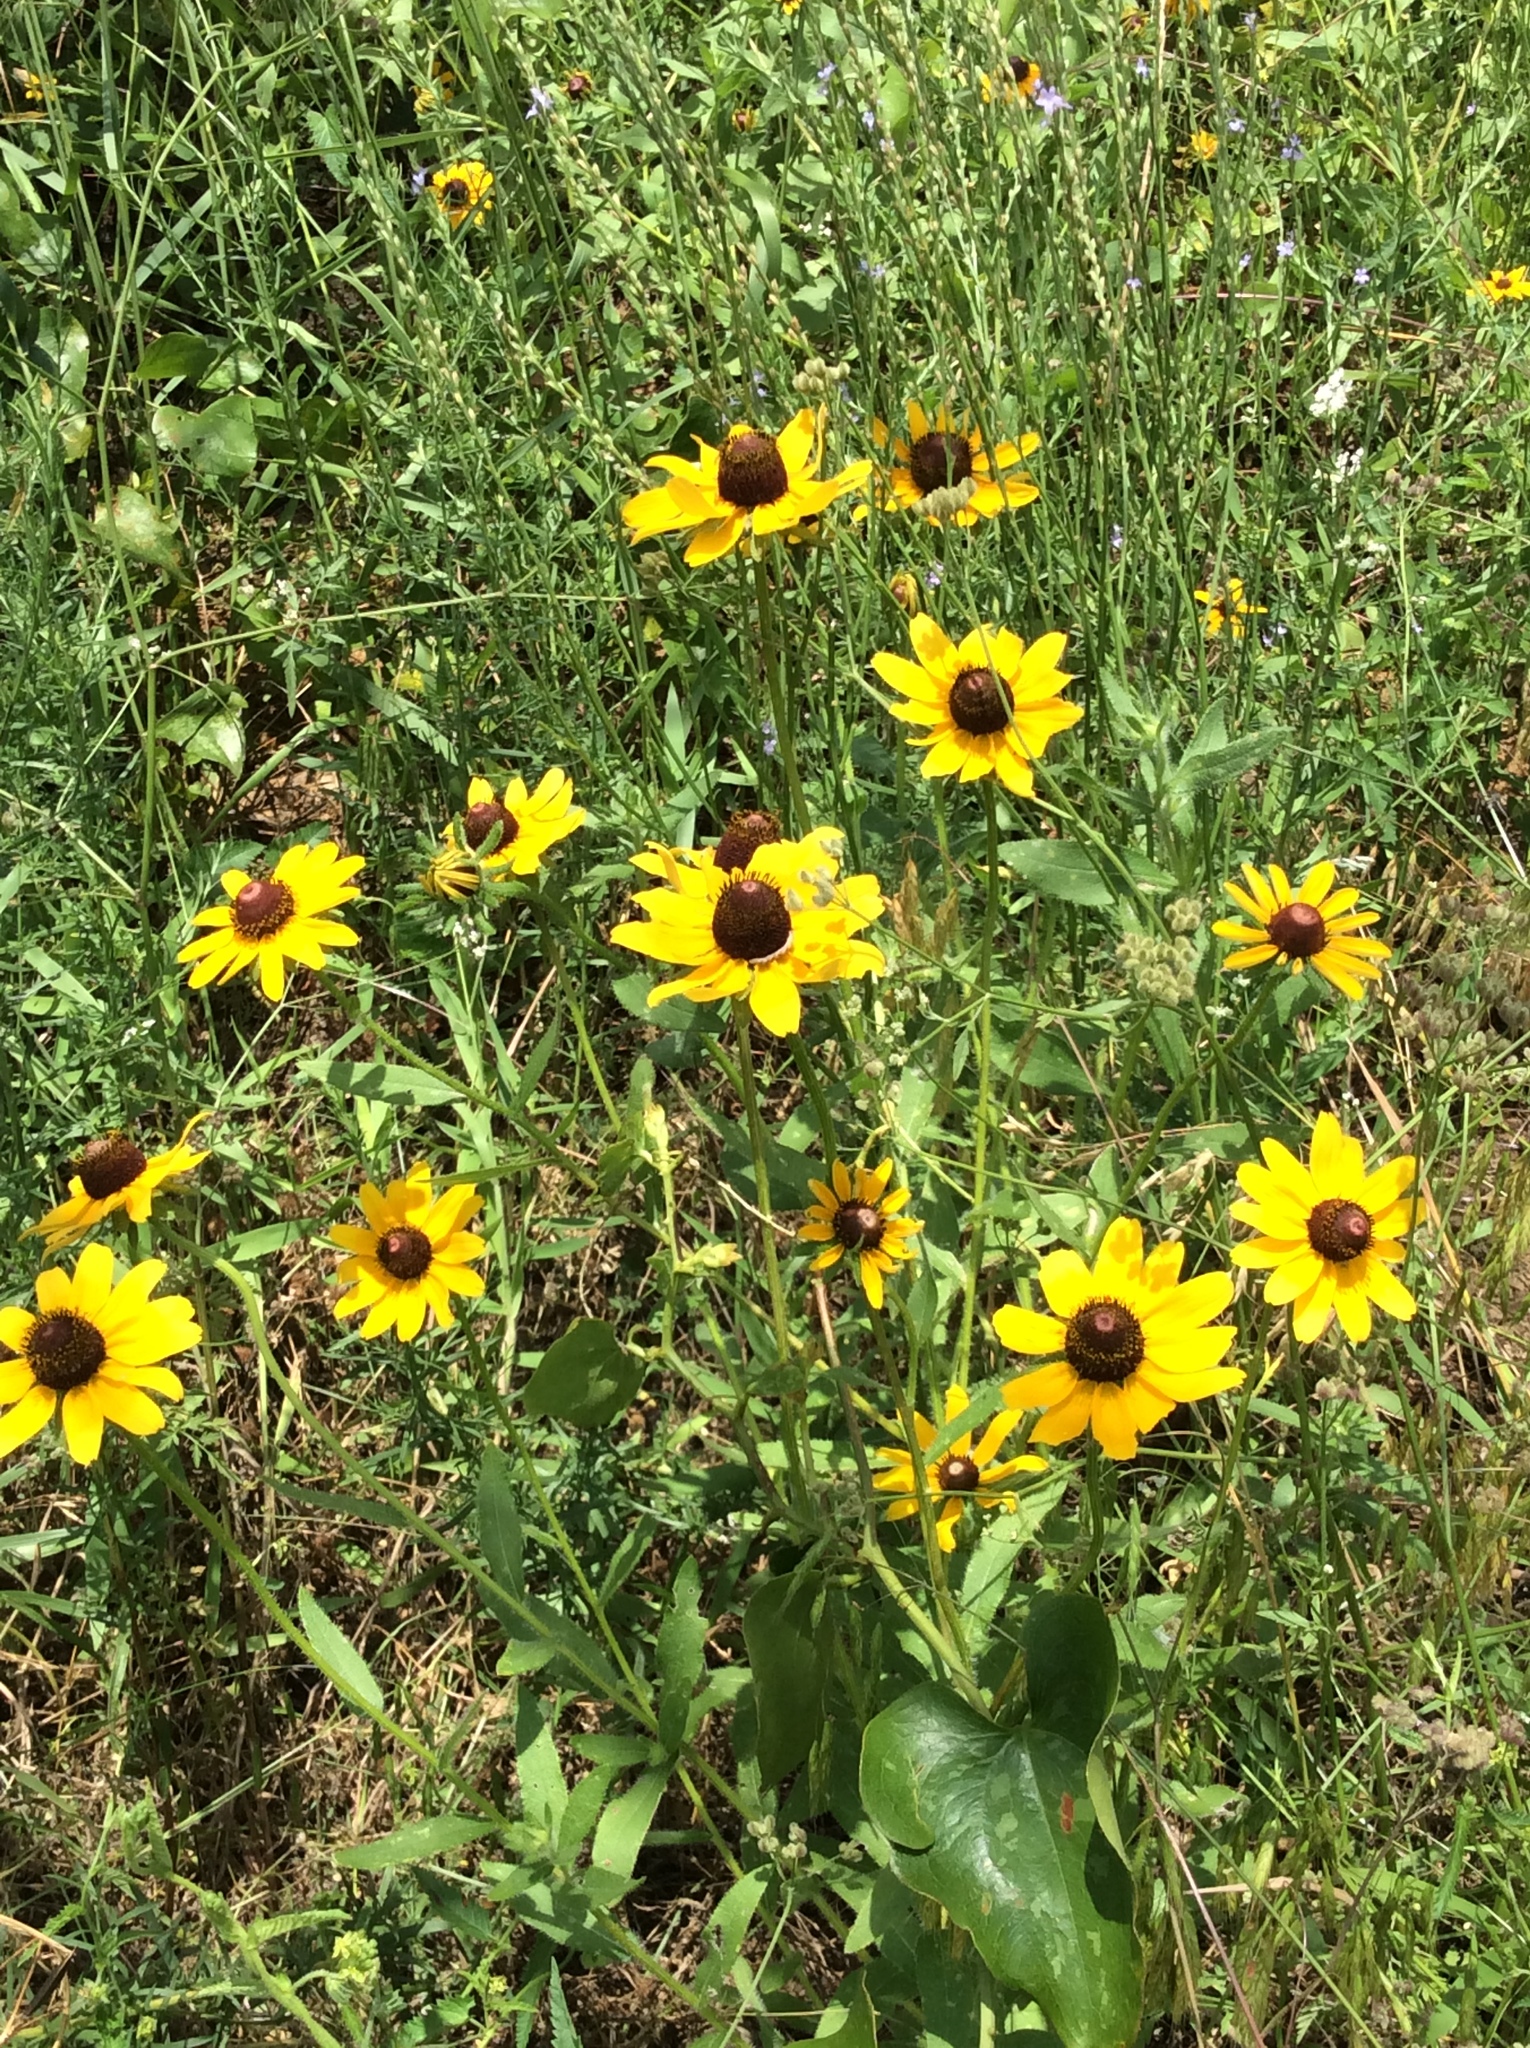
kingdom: Plantae
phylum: Tracheophyta
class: Magnoliopsida
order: Asterales
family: Asteraceae
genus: Rudbeckia
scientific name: Rudbeckia hirta
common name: Black-eyed-susan
